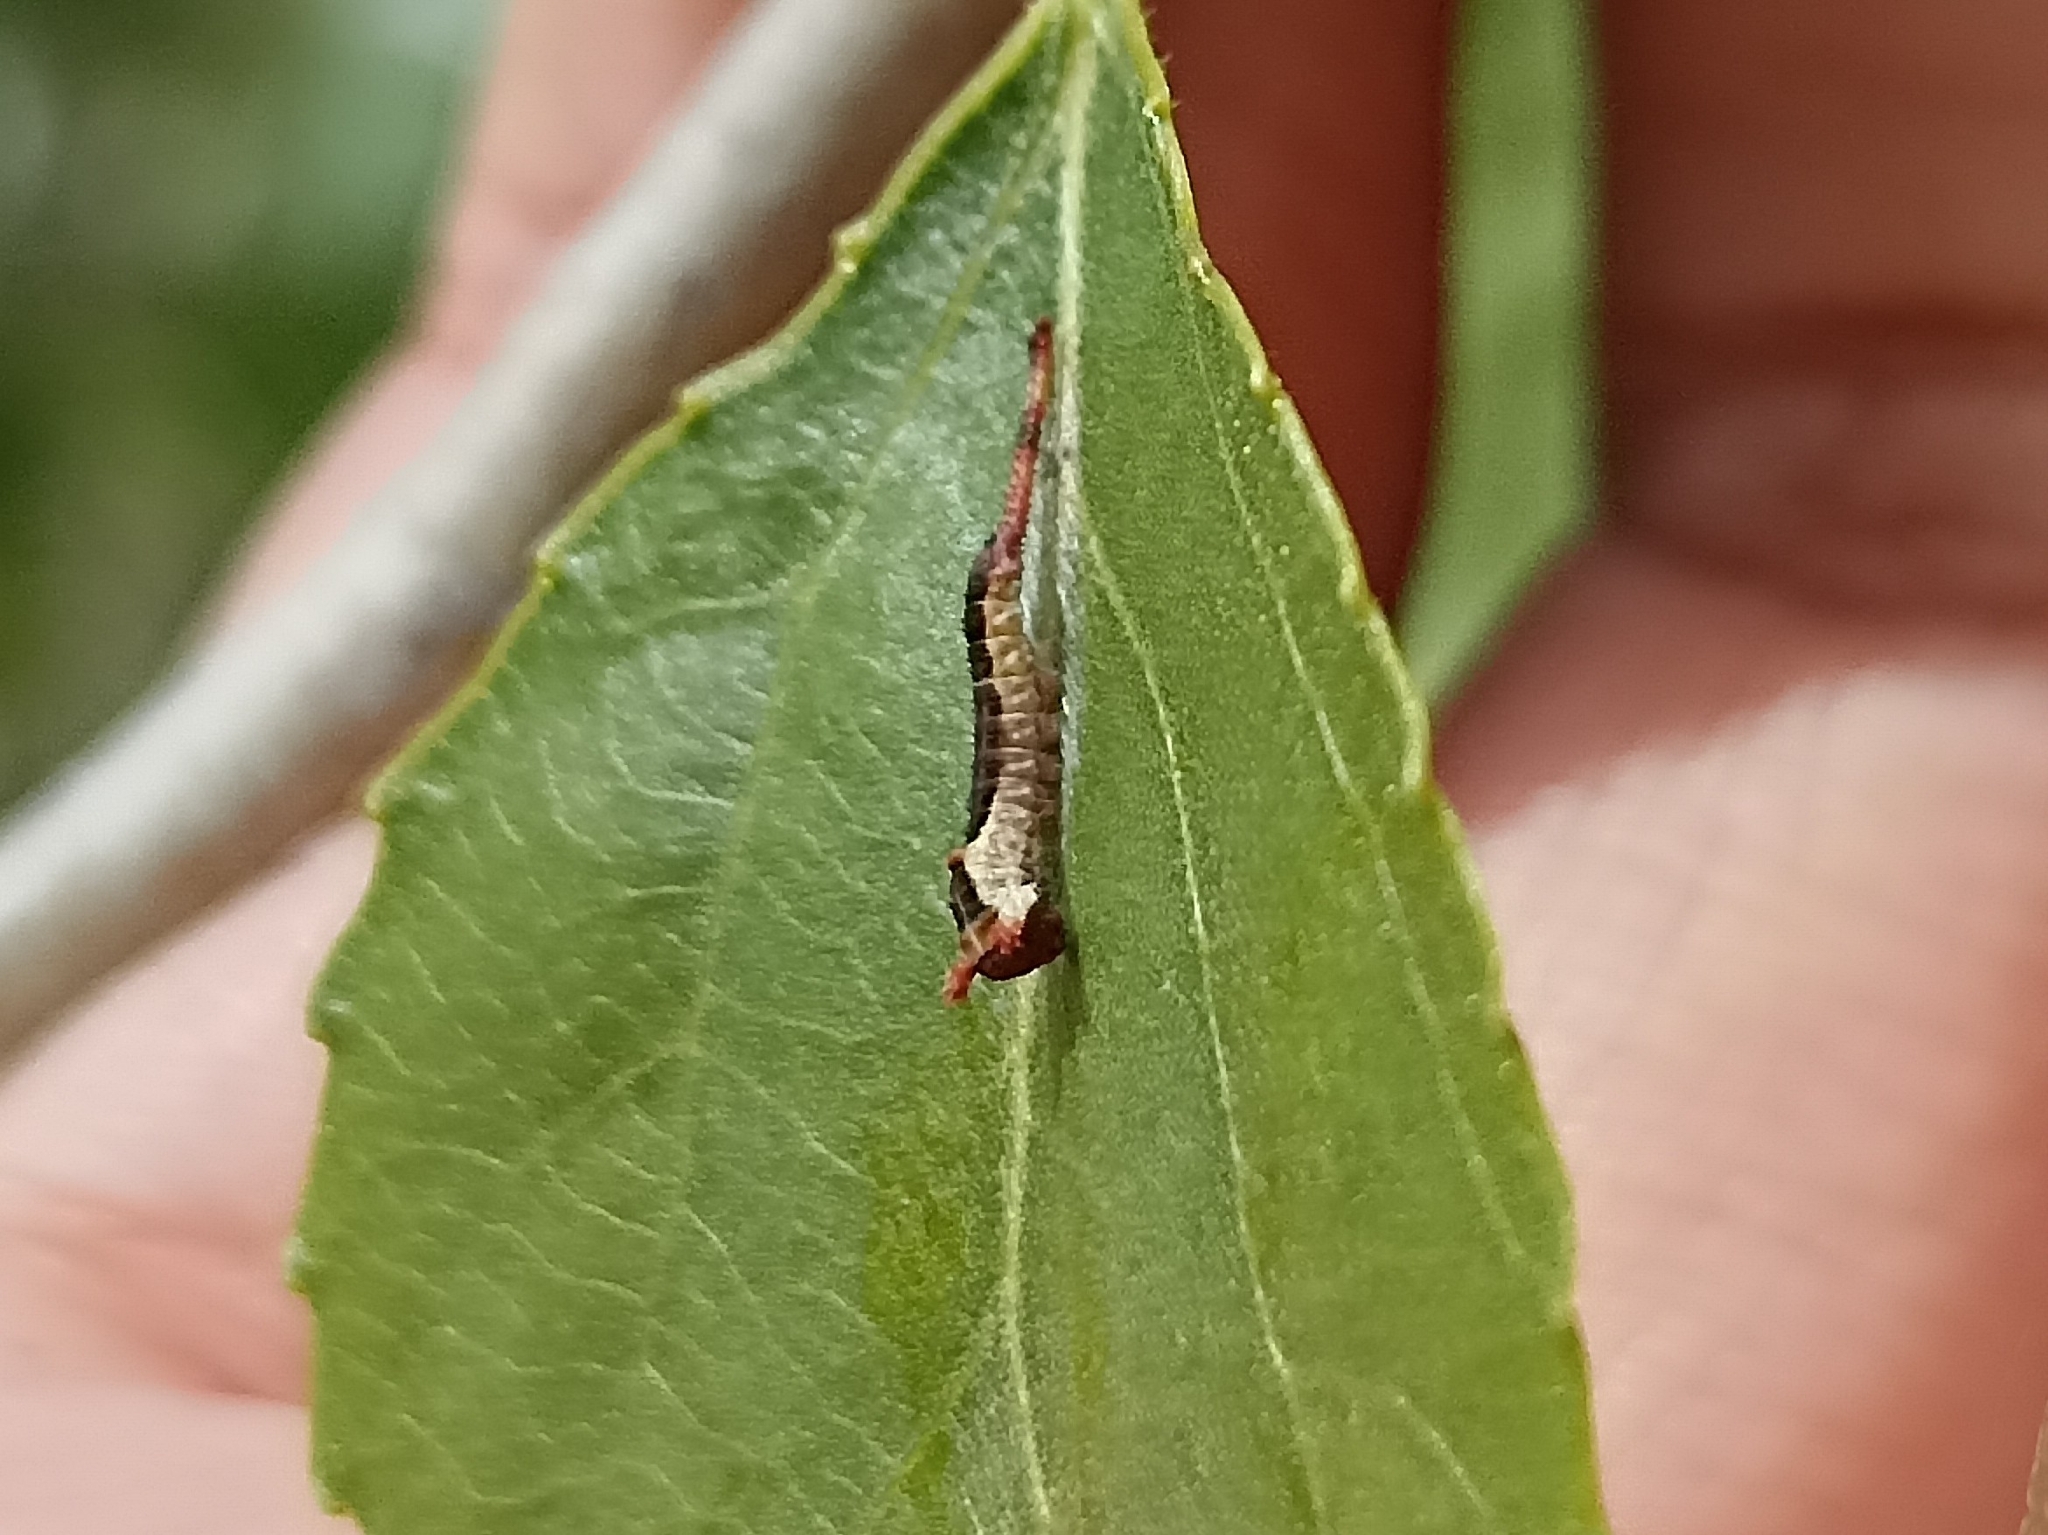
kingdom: Animalia
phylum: Arthropoda
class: Insecta
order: Lepidoptera
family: Notodontidae
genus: Cerura
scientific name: Cerura iberica
